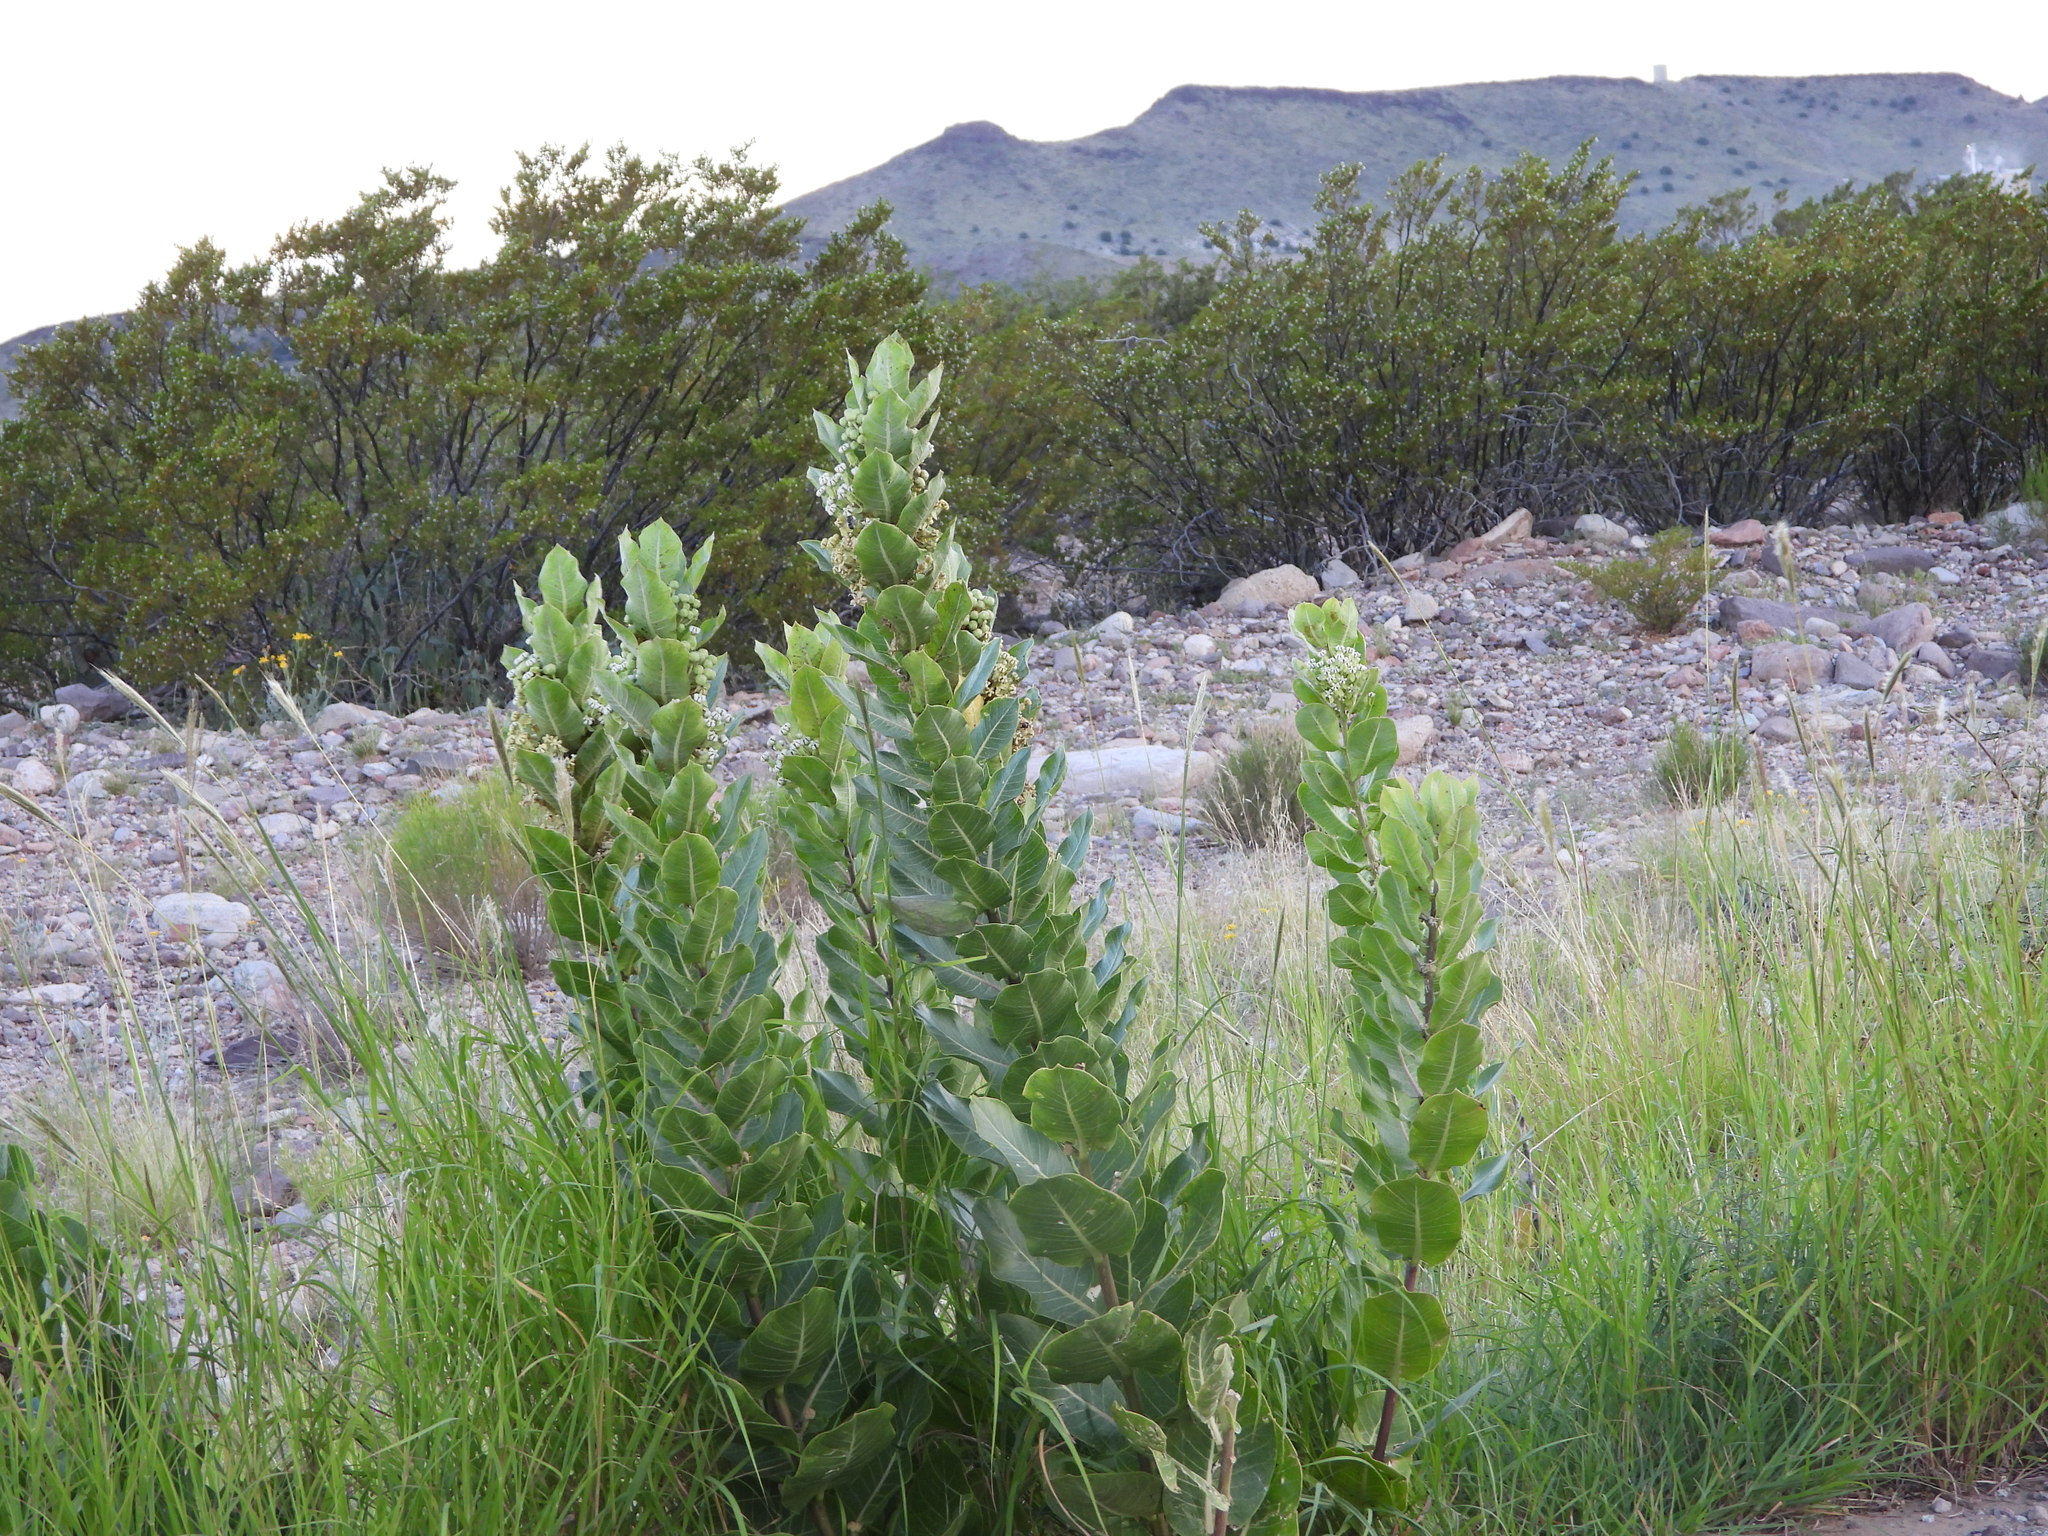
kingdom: Plantae
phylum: Tracheophyta
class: Magnoliopsida
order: Gentianales
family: Apocynaceae
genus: Asclepias
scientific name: Asclepias latifolia
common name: Broadleaf milkweed
